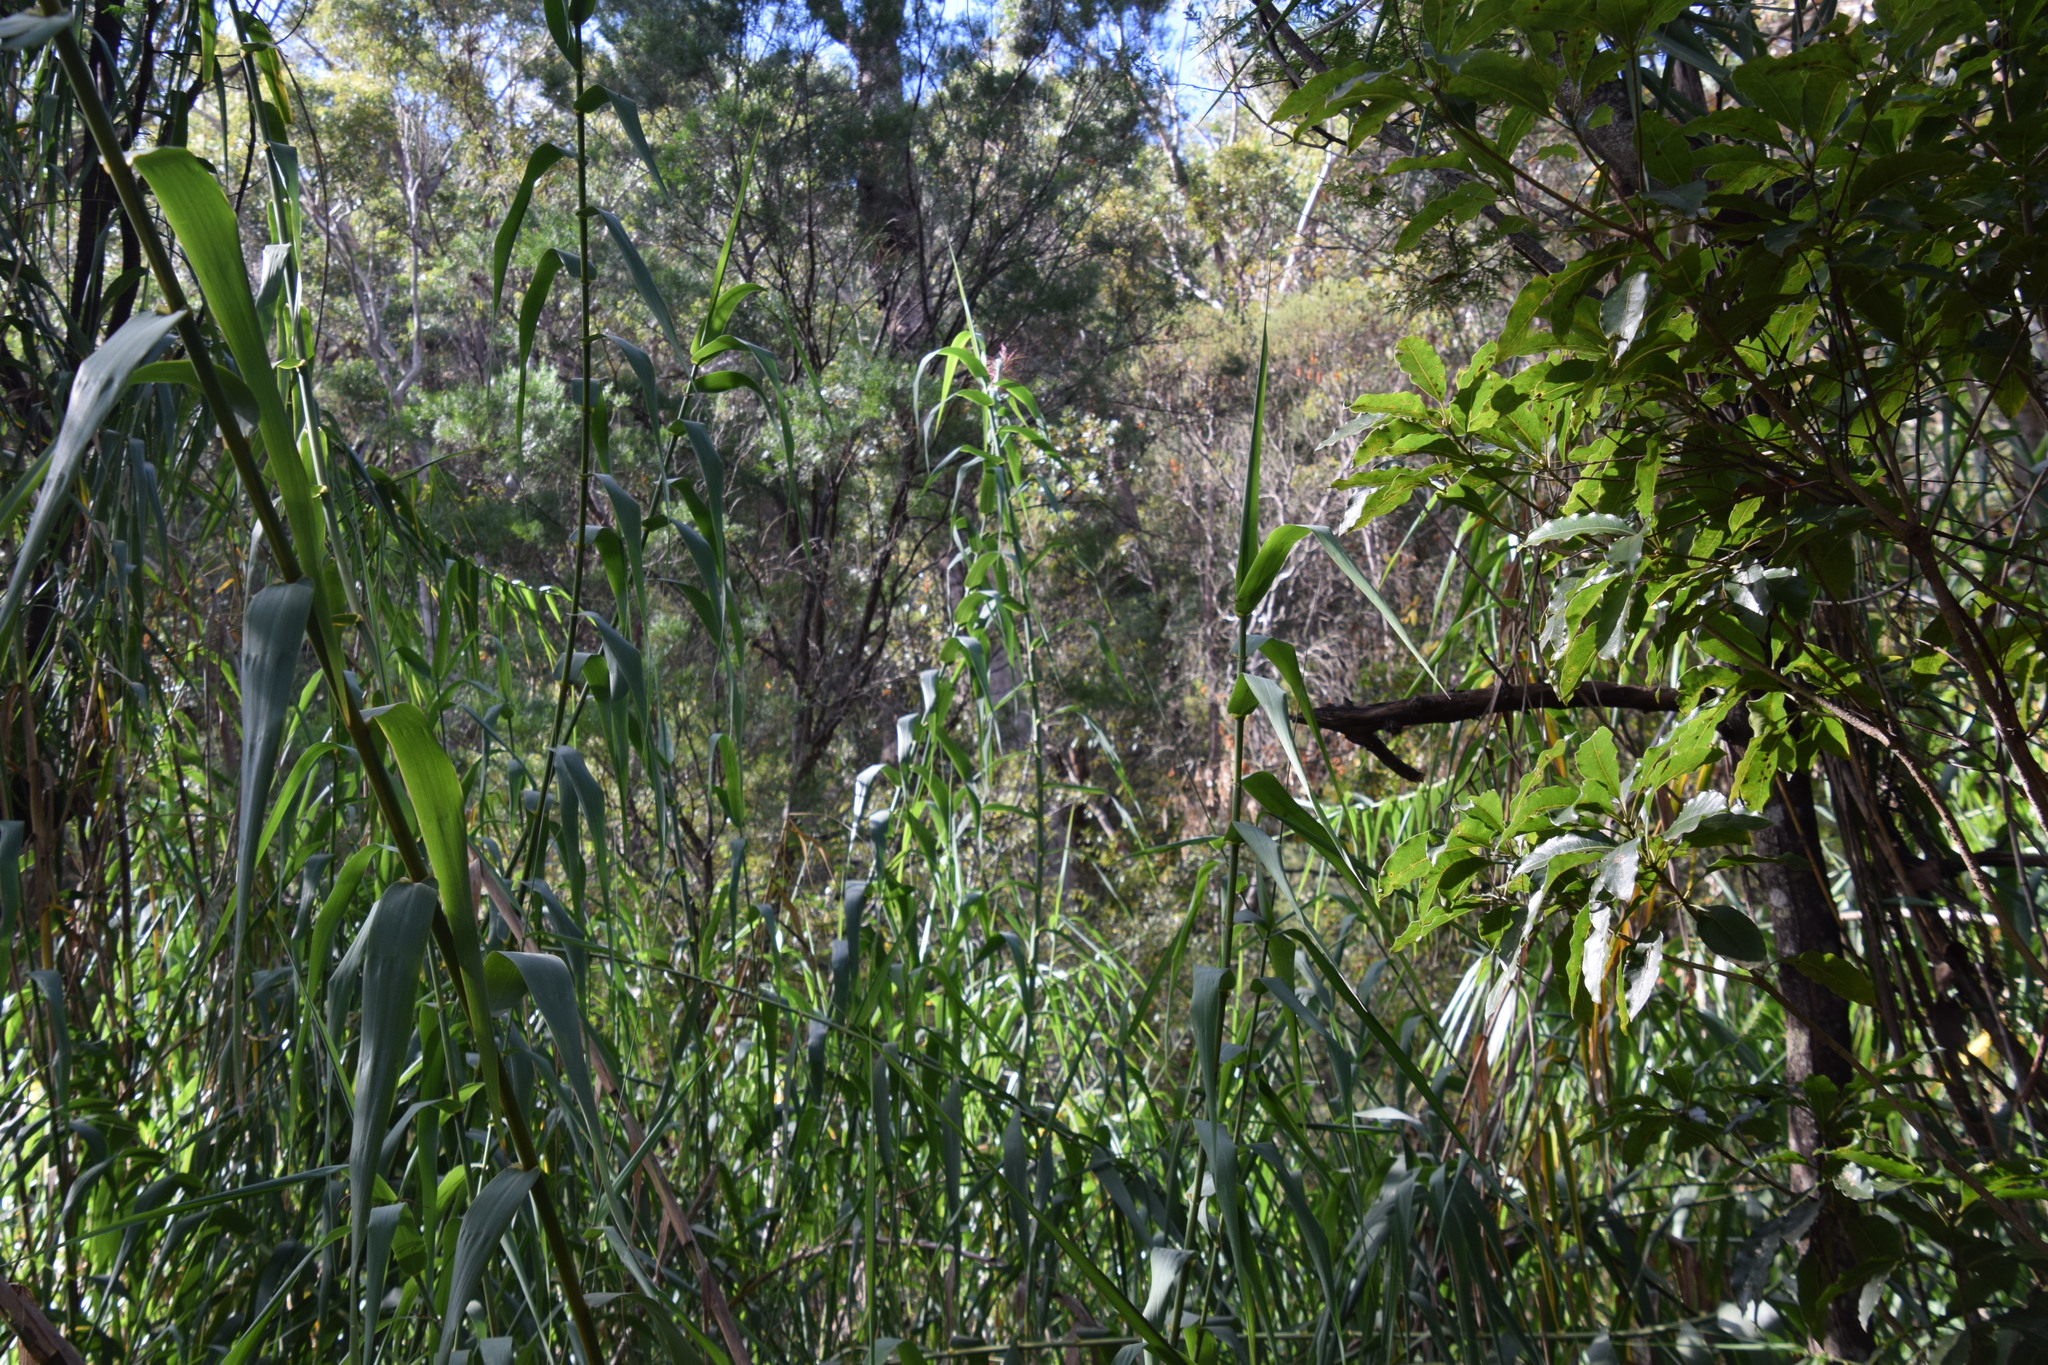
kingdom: Plantae
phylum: Tracheophyta
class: Liliopsida
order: Poales
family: Poaceae
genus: Arundo
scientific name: Arundo donax
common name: Giant reed
